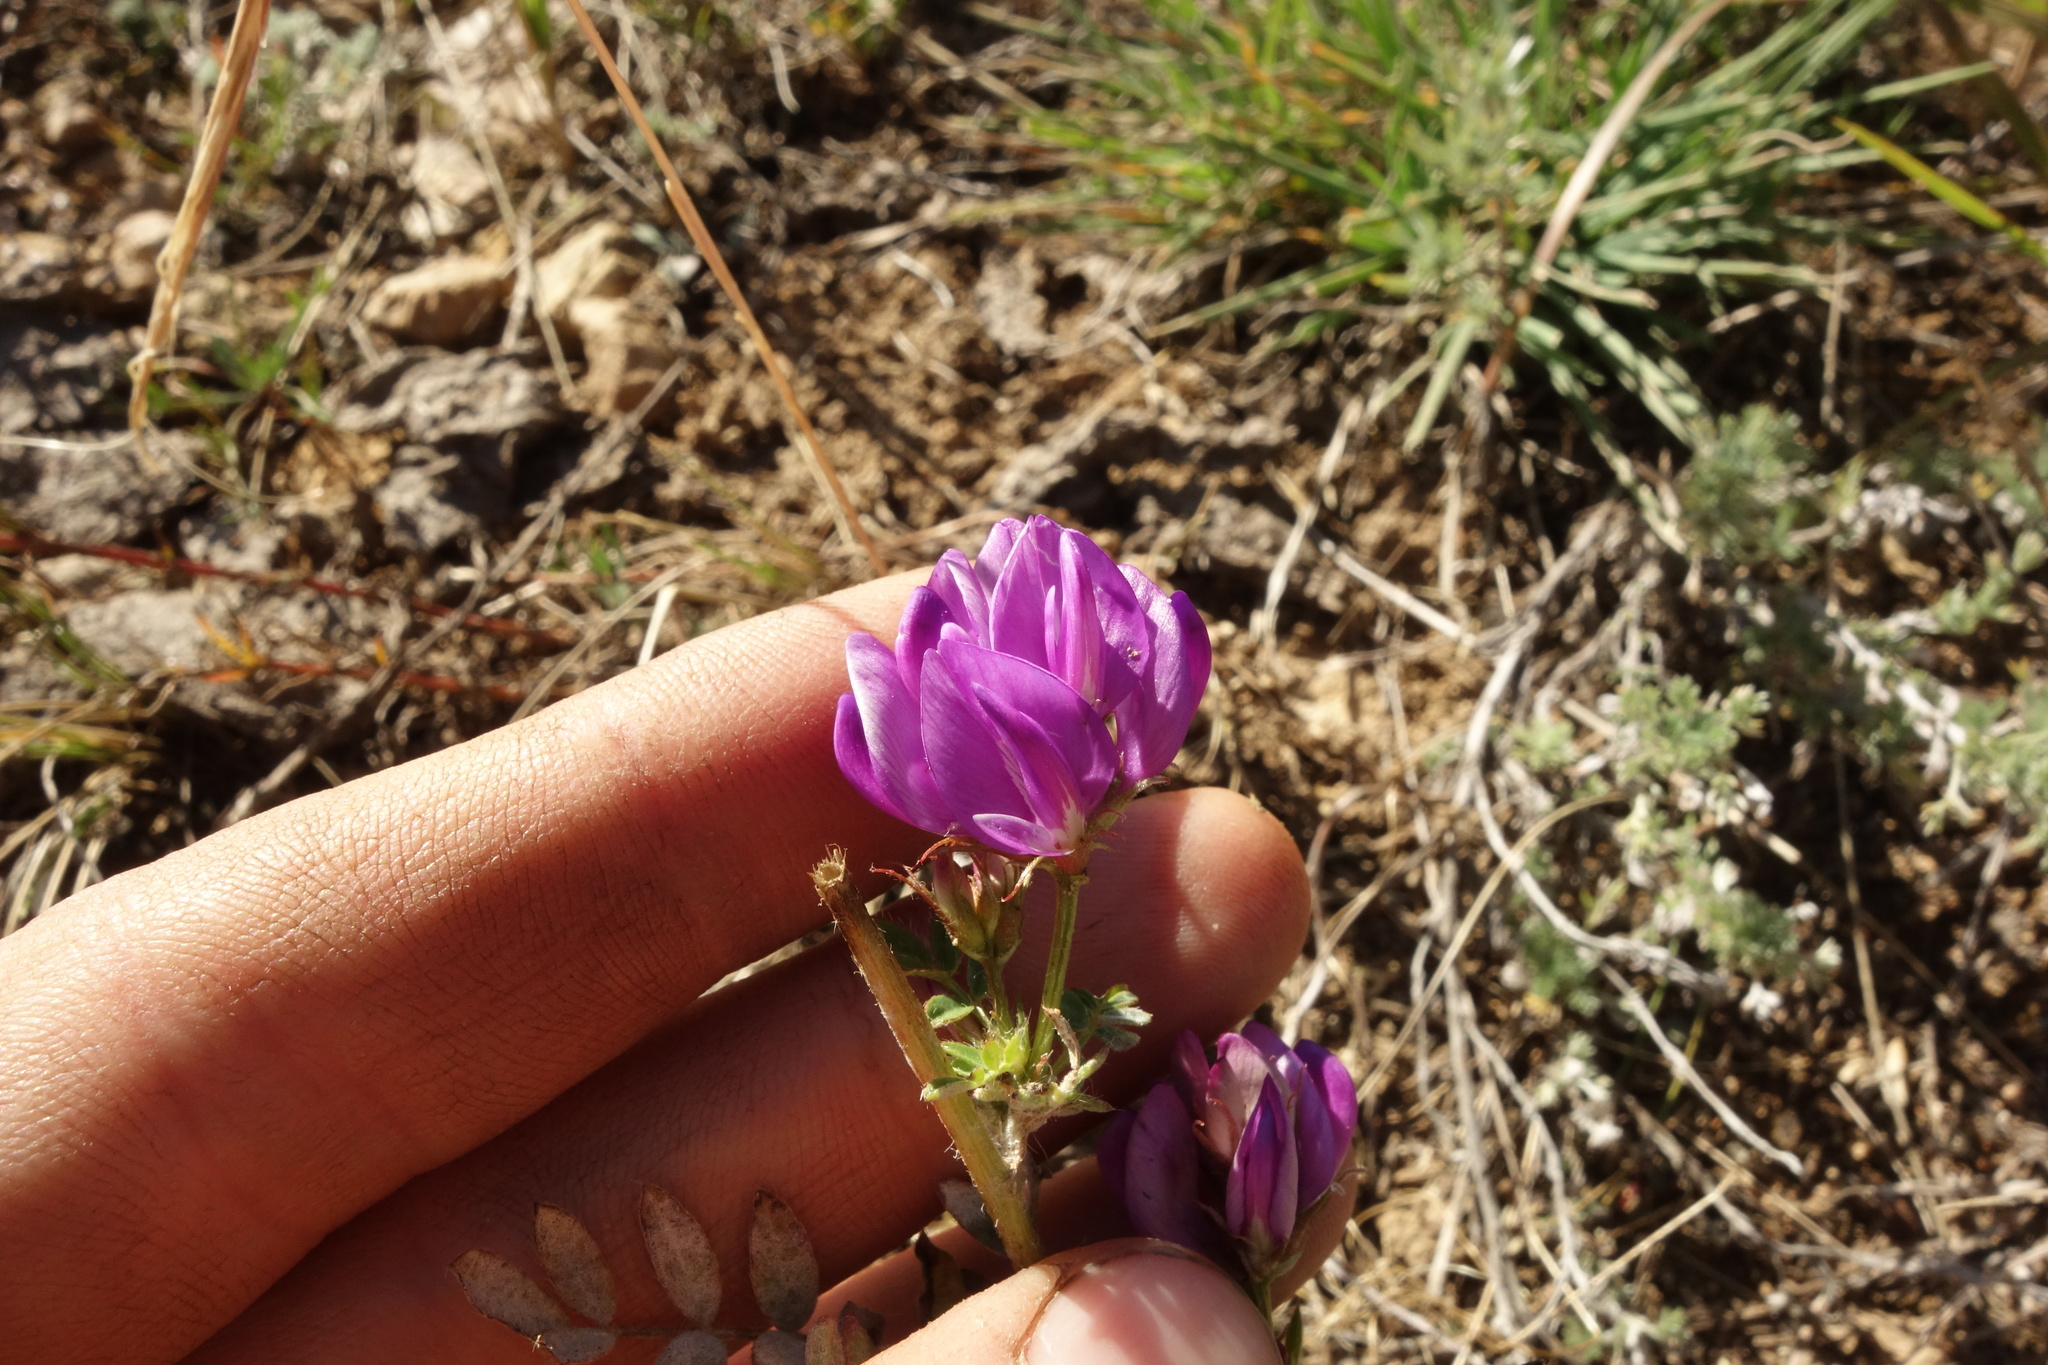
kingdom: Plantae
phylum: Tracheophyta
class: Magnoliopsida
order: Fabales
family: Fabaceae
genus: Astragalus
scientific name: Astragalus davuricus
